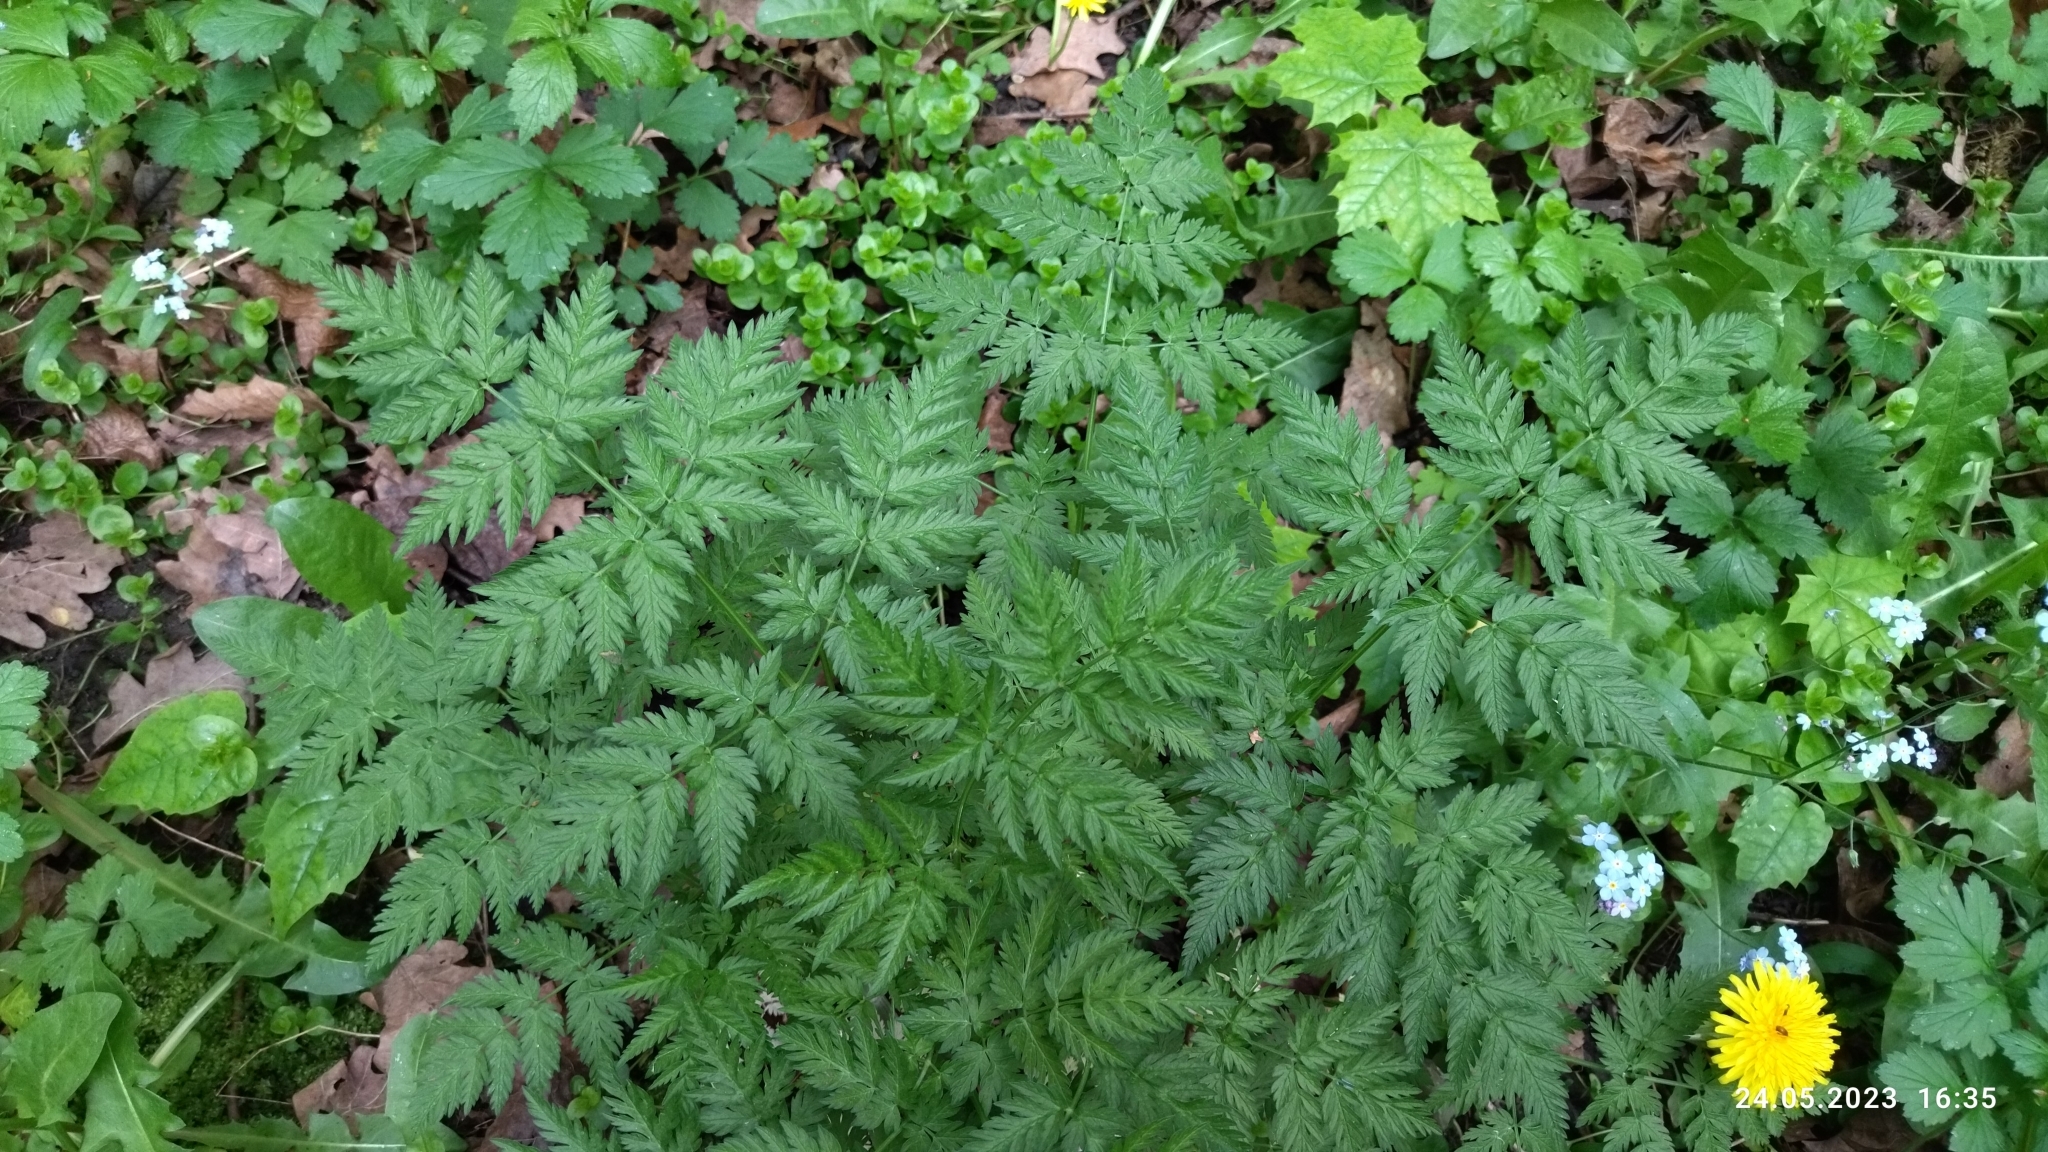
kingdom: Plantae
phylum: Tracheophyta
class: Magnoliopsida
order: Apiales
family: Apiaceae
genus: Anthriscus
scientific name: Anthriscus sylvestris
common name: Cow parsley
